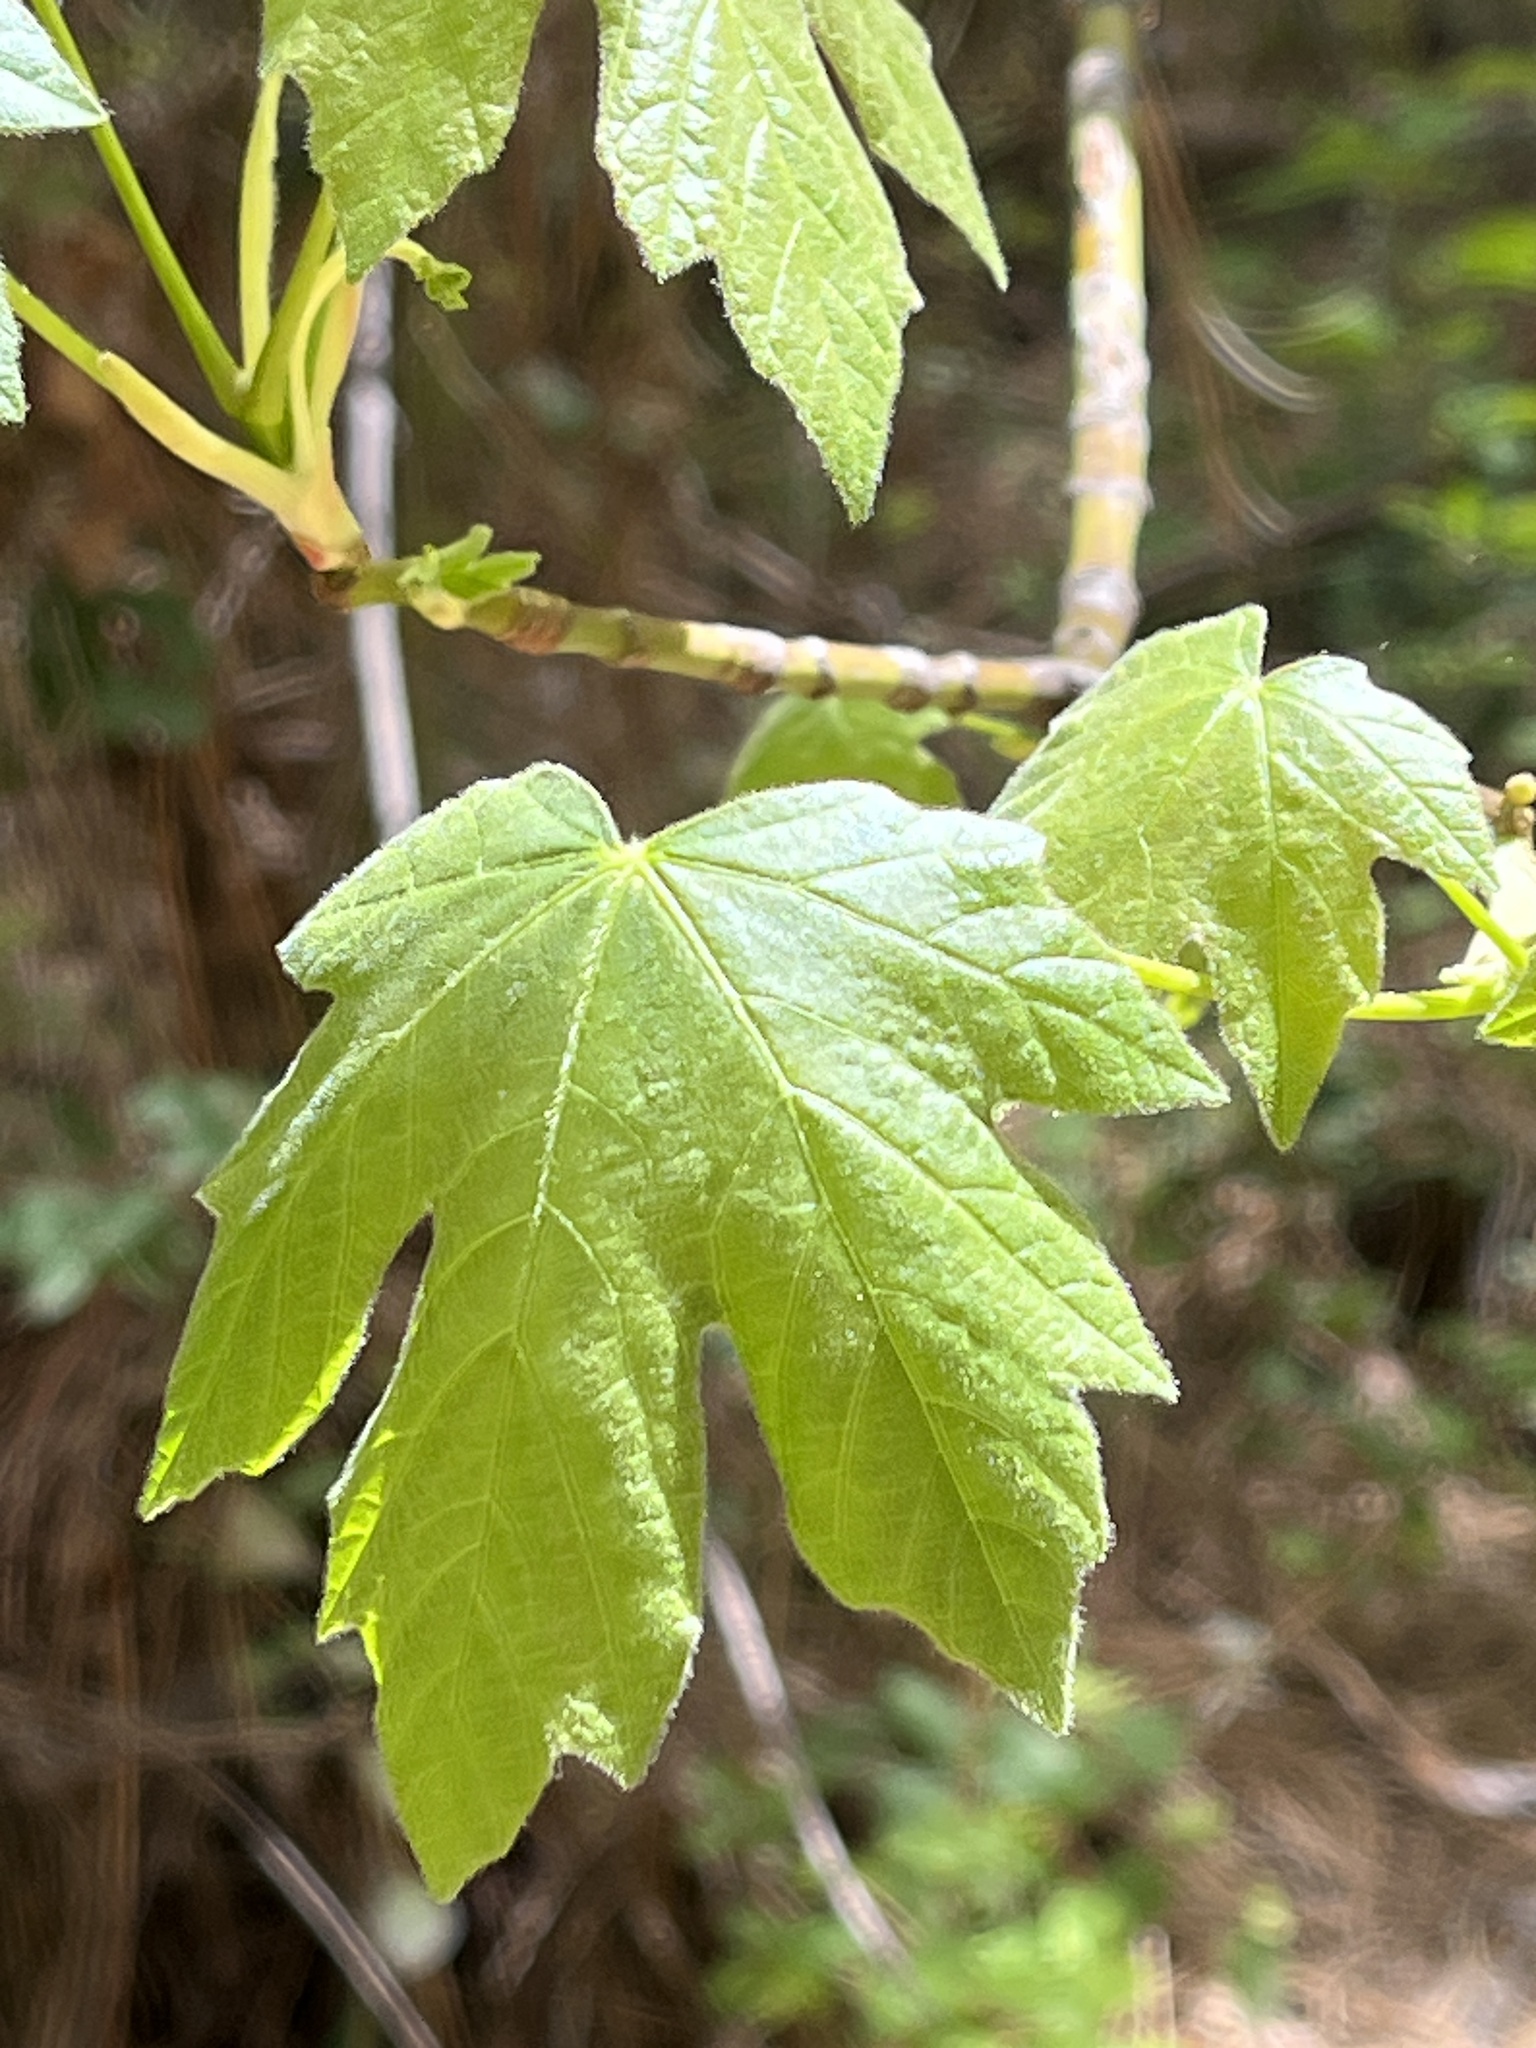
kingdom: Plantae
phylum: Tracheophyta
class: Magnoliopsida
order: Sapindales
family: Sapindaceae
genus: Acer
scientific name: Acer macrophyllum
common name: Oregon maple
